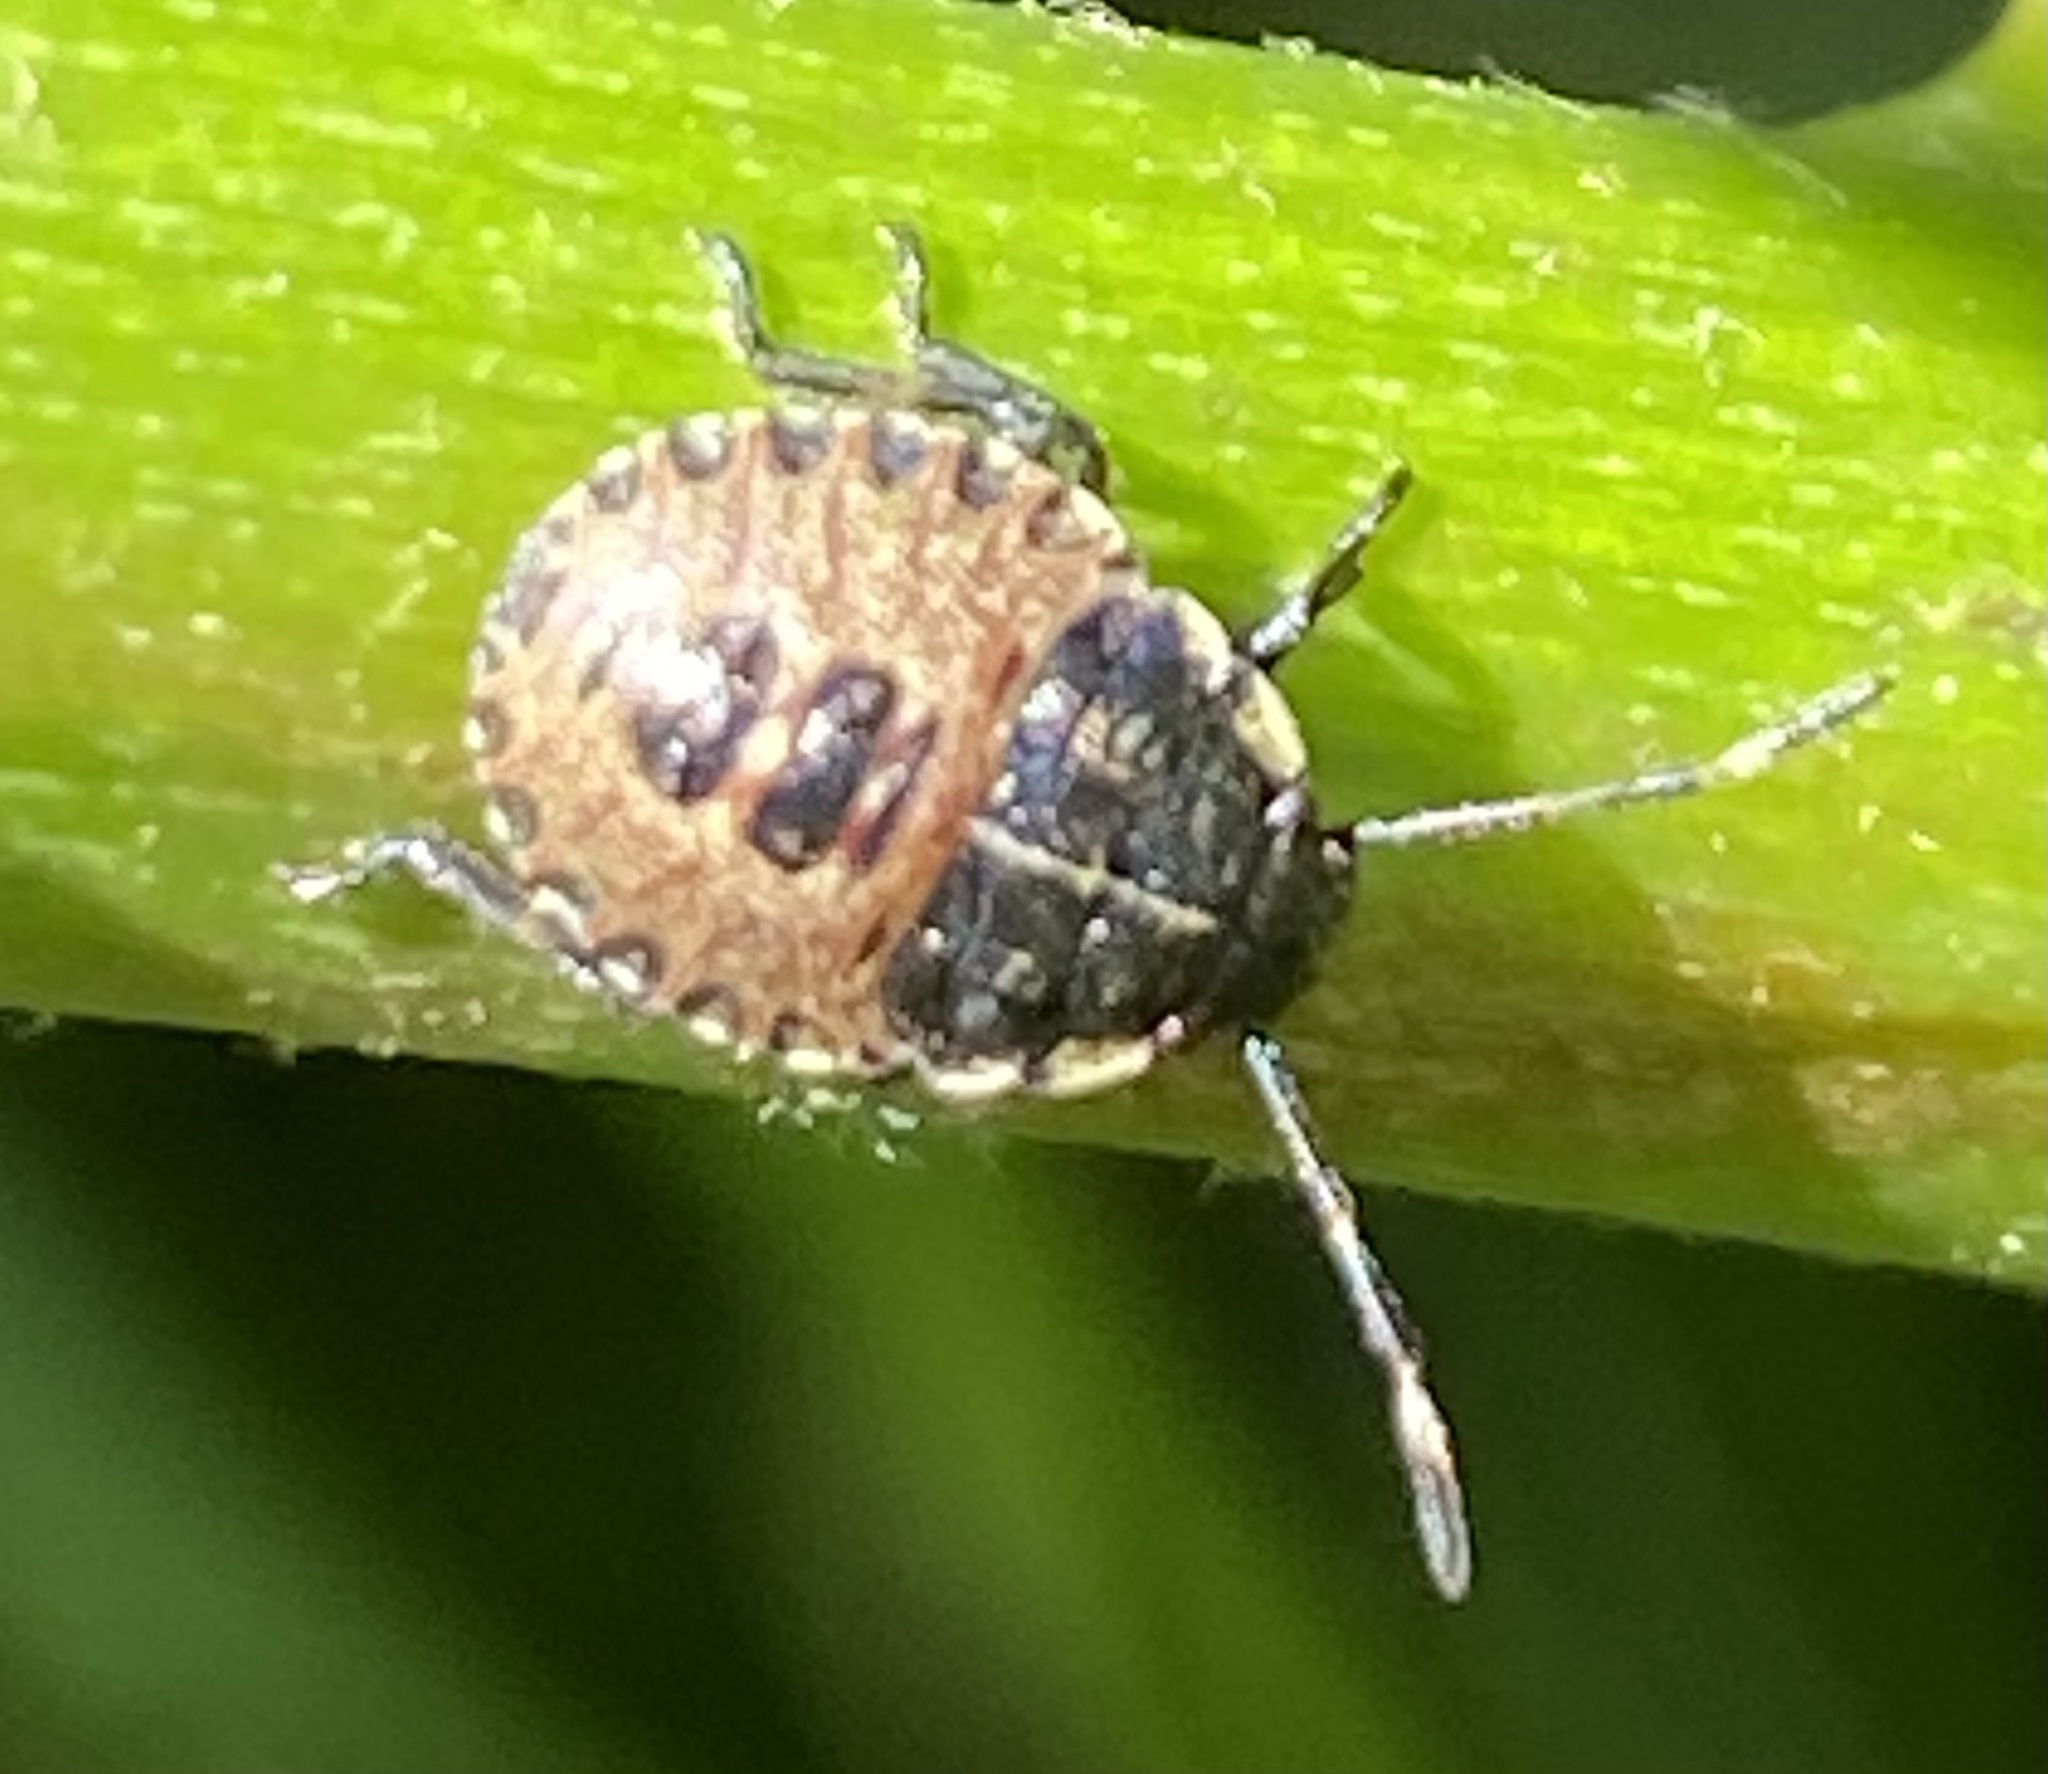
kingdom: Animalia
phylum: Arthropoda
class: Insecta
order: Hemiptera
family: Pentatomidae
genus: Rhaphigaster
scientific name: Rhaphigaster nebulosa
